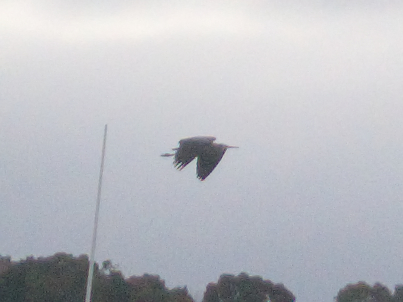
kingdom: Animalia
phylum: Chordata
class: Aves
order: Pelecaniformes
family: Ardeidae
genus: Egretta
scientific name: Egretta novaehollandiae
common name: White-faced heron
